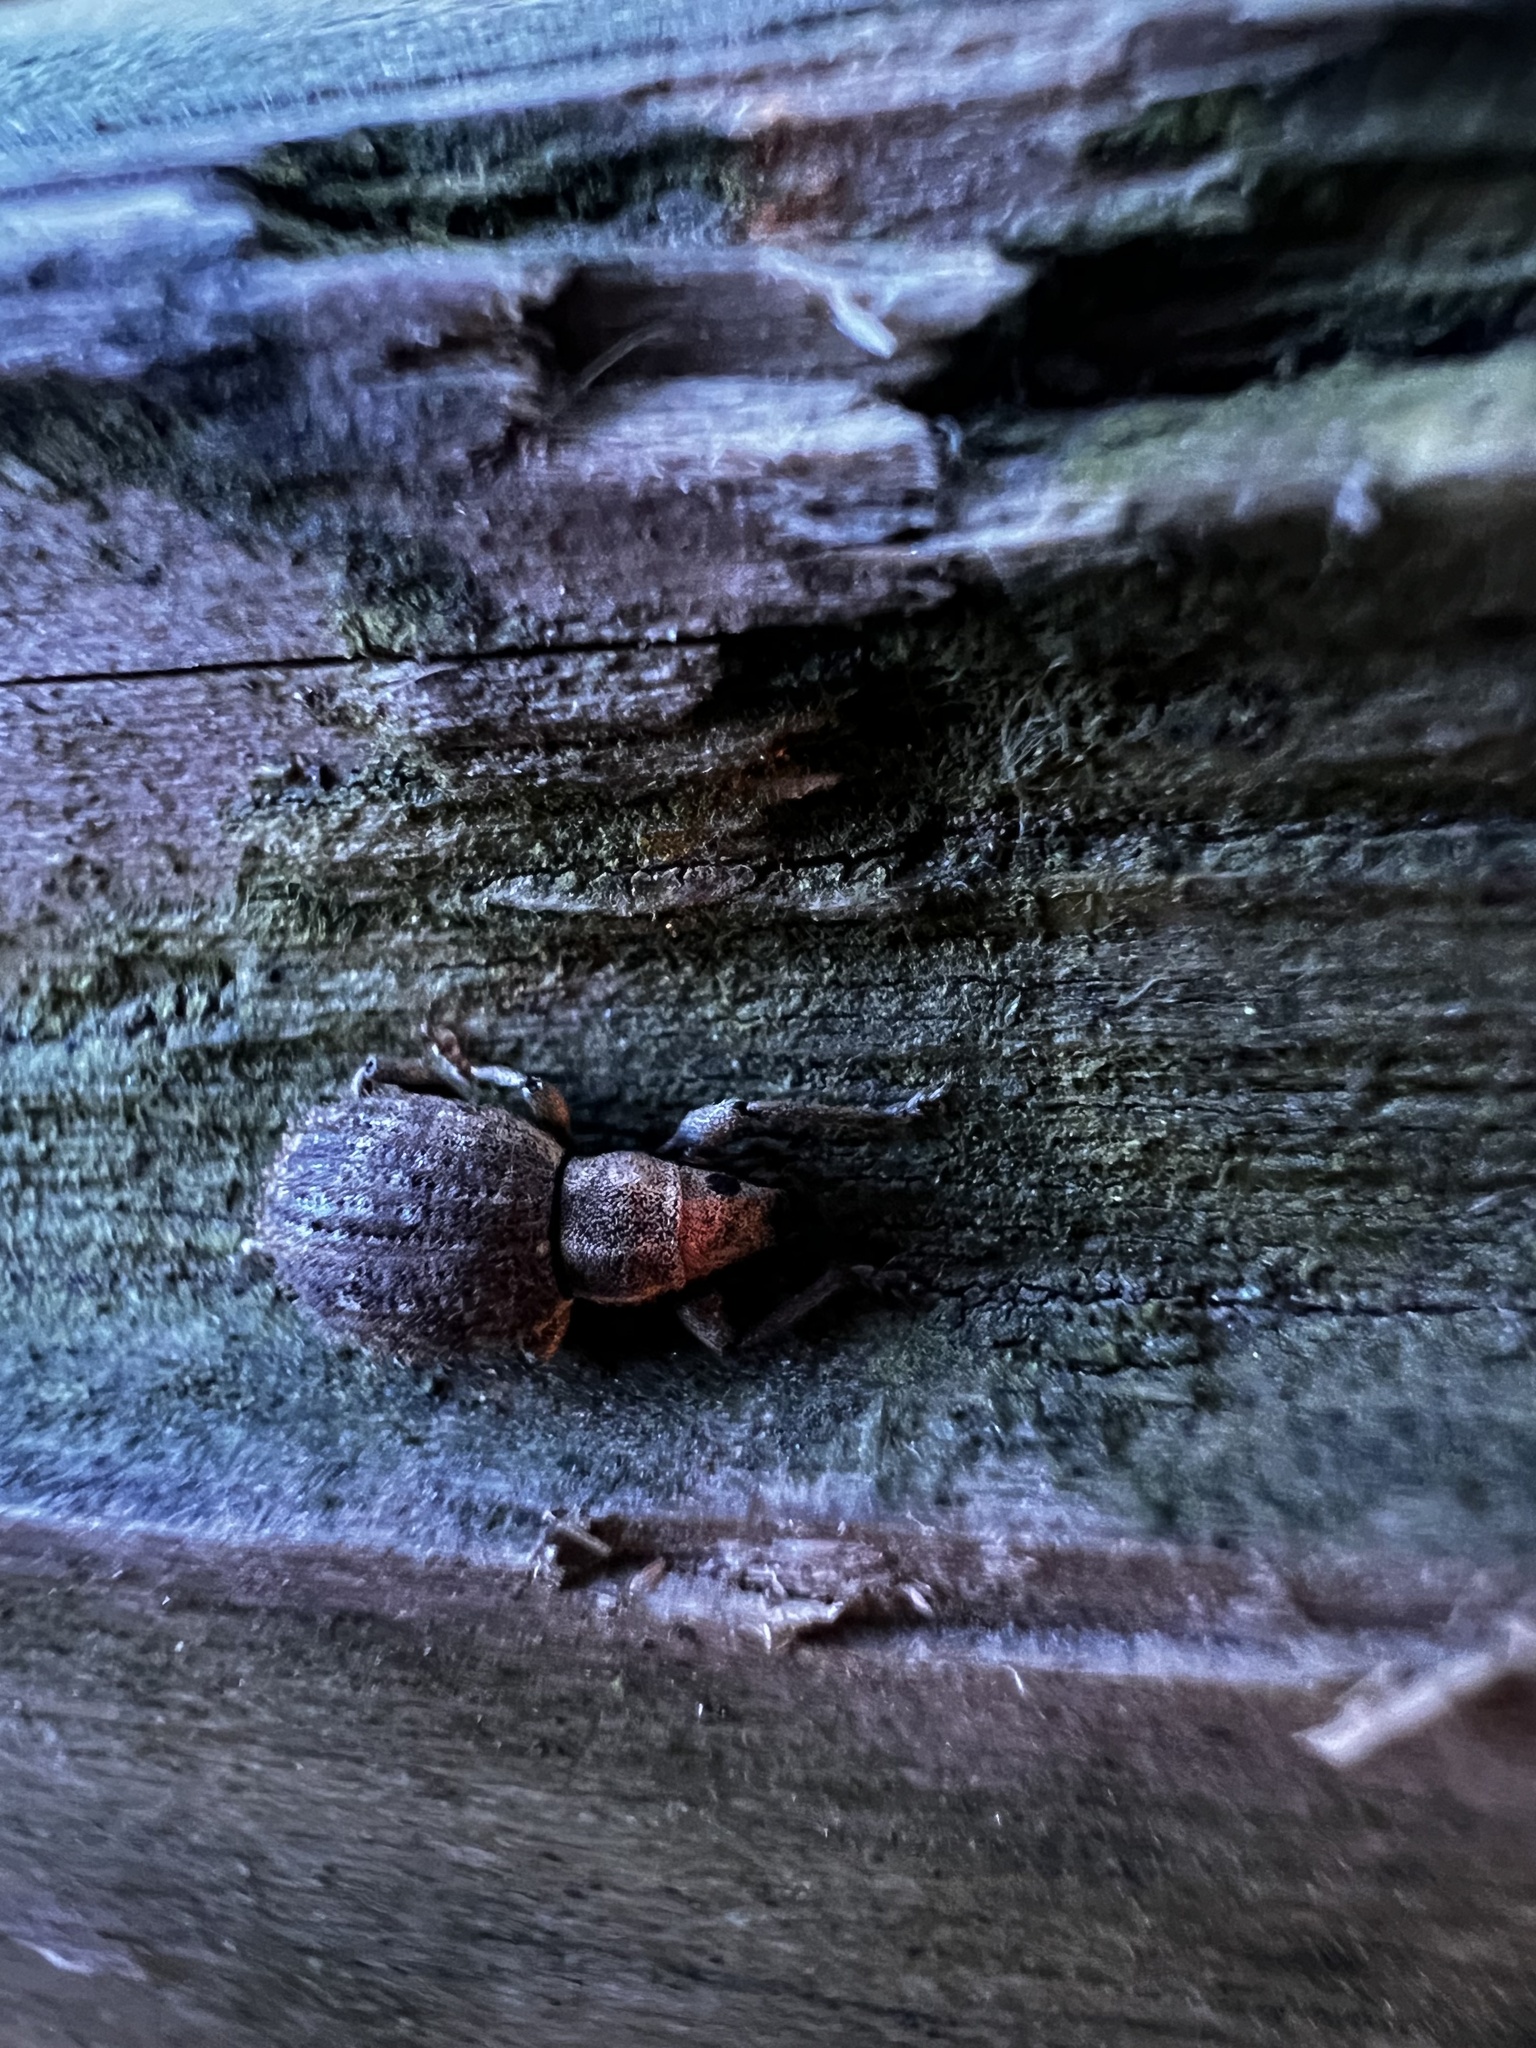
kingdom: Animalia
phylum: Arthropoda
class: Insecta
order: Coleoptera
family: Curculionidae
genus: Sciaphilus
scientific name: Sciaphilus asperatus
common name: Weevil
